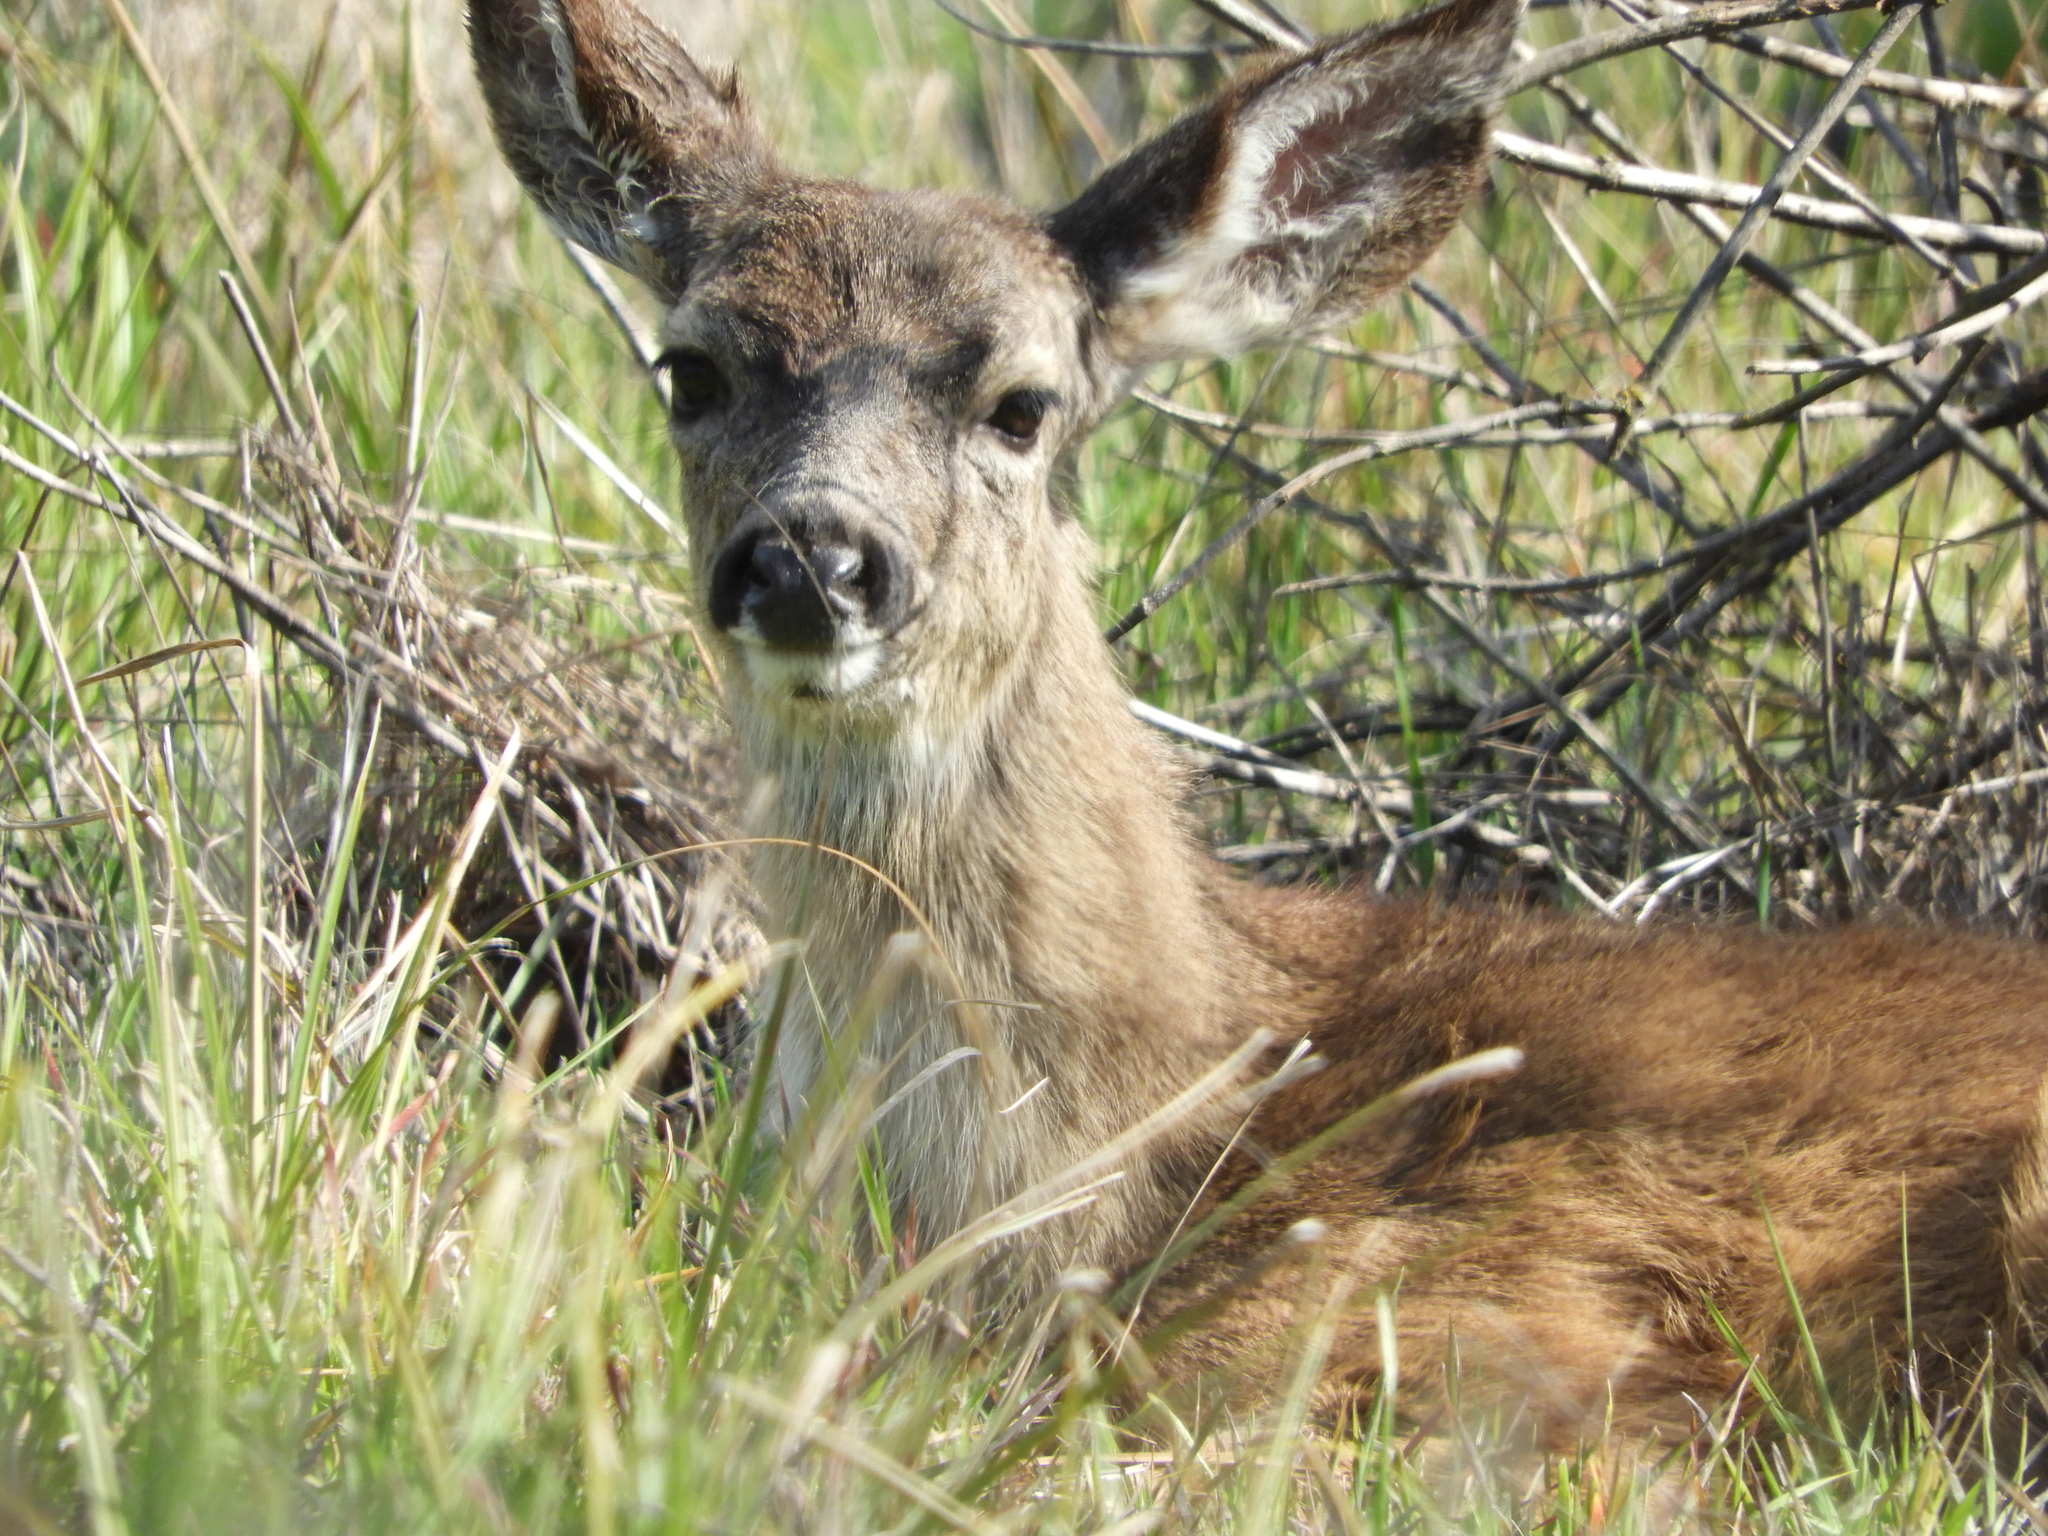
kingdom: Animalia
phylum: Chordata
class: Mammalia
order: Artiodactyla
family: Cervidae
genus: Odocoileus
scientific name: Odocoileus hemionus
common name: Mule deer
